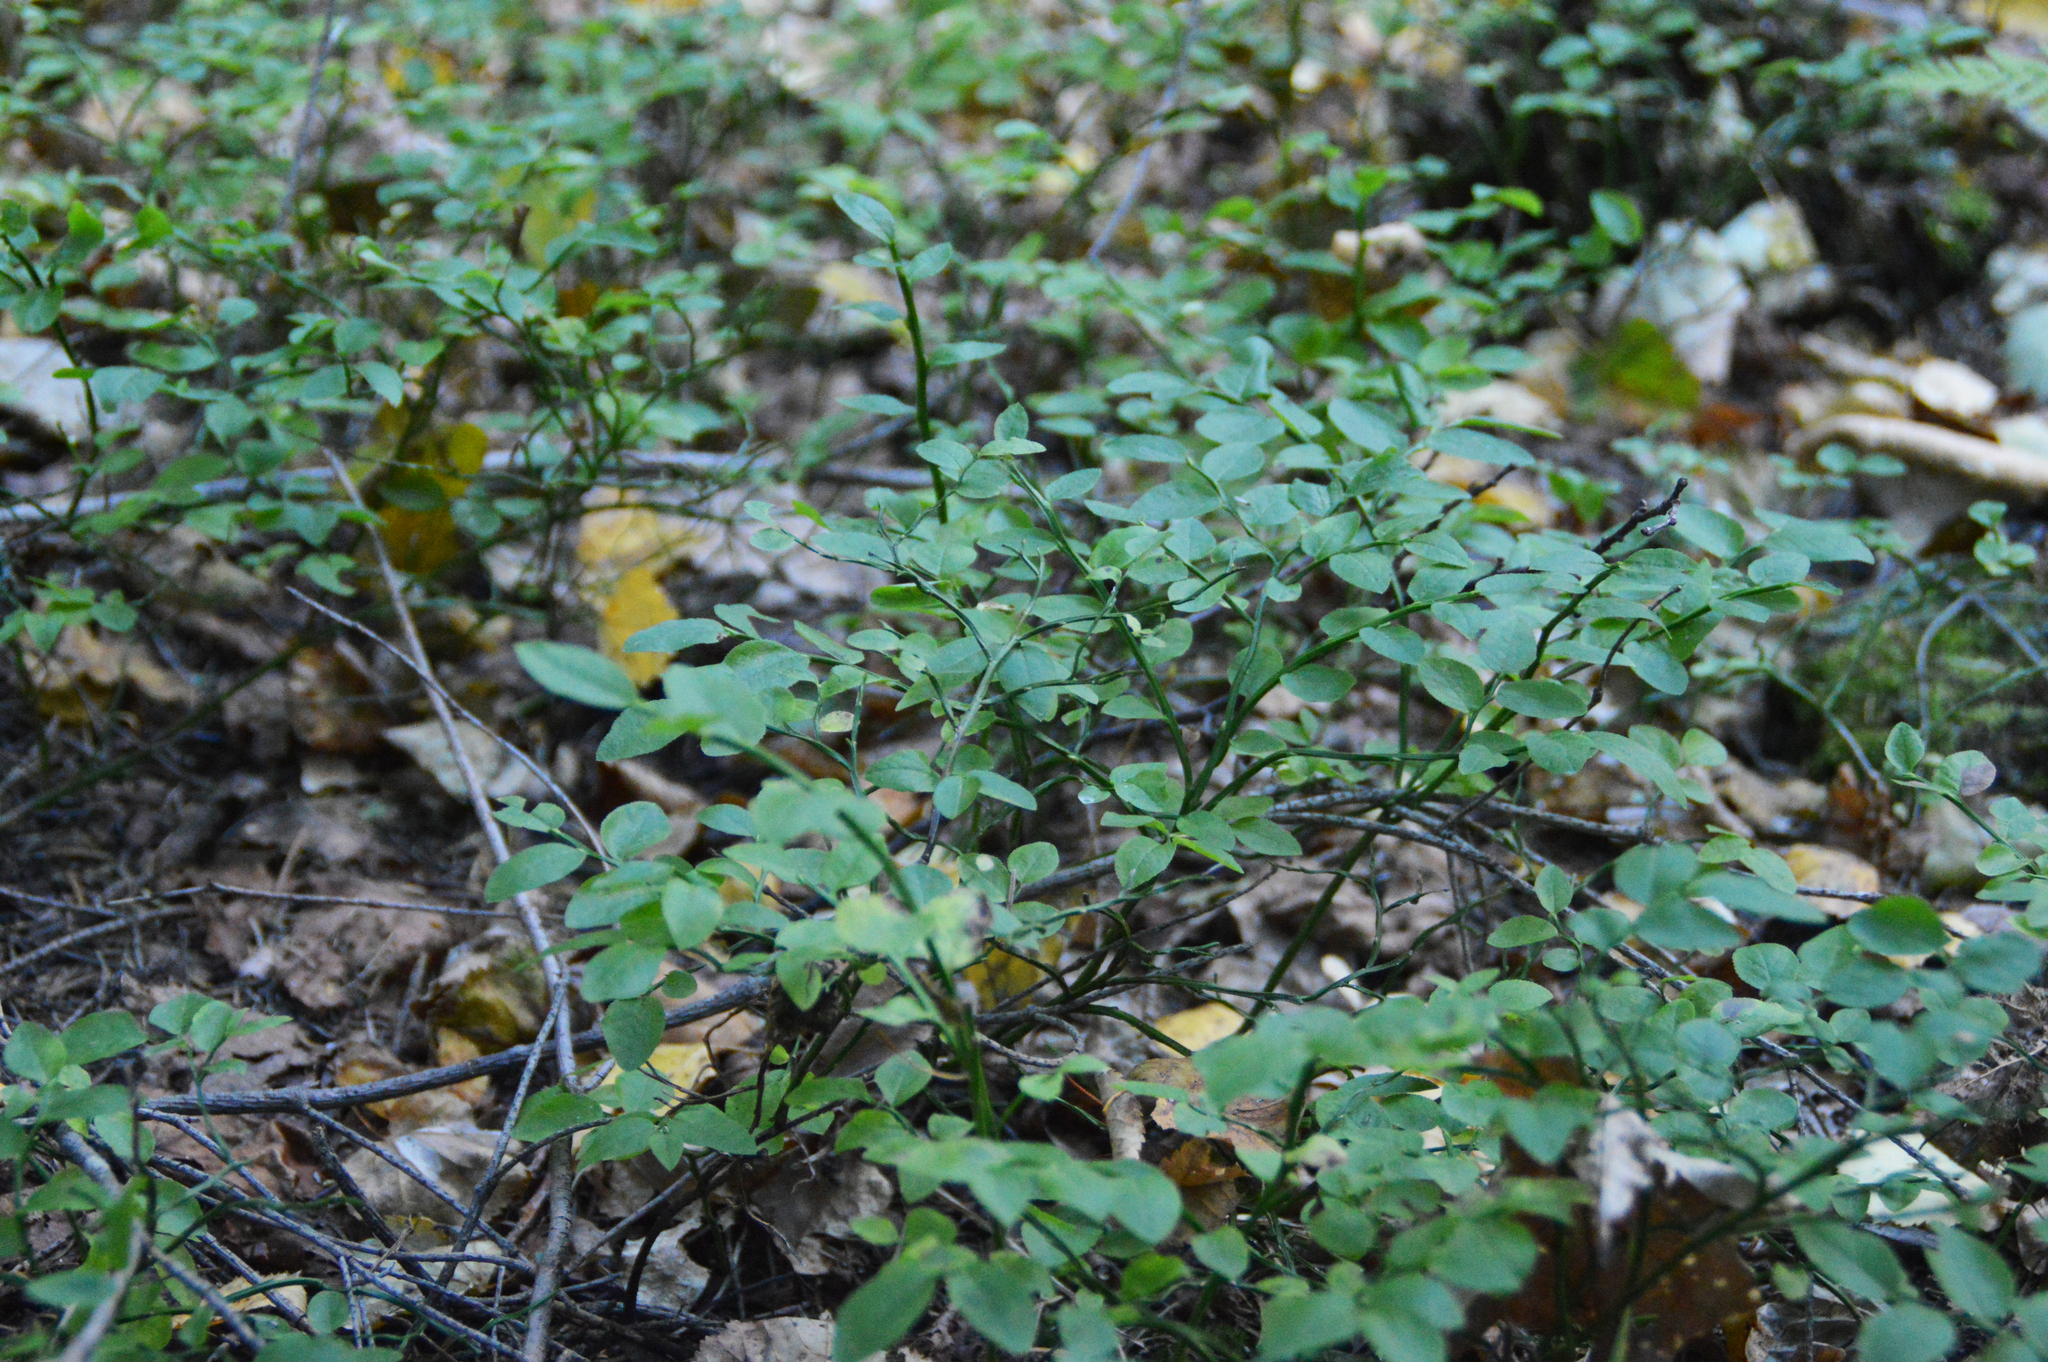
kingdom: Plantae
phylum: Tracheophyta
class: Magnoliopsida
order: Ericales
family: Ericaceae
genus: Vaccinium
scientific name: Vaccinium myrtillus
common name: Bilberry
